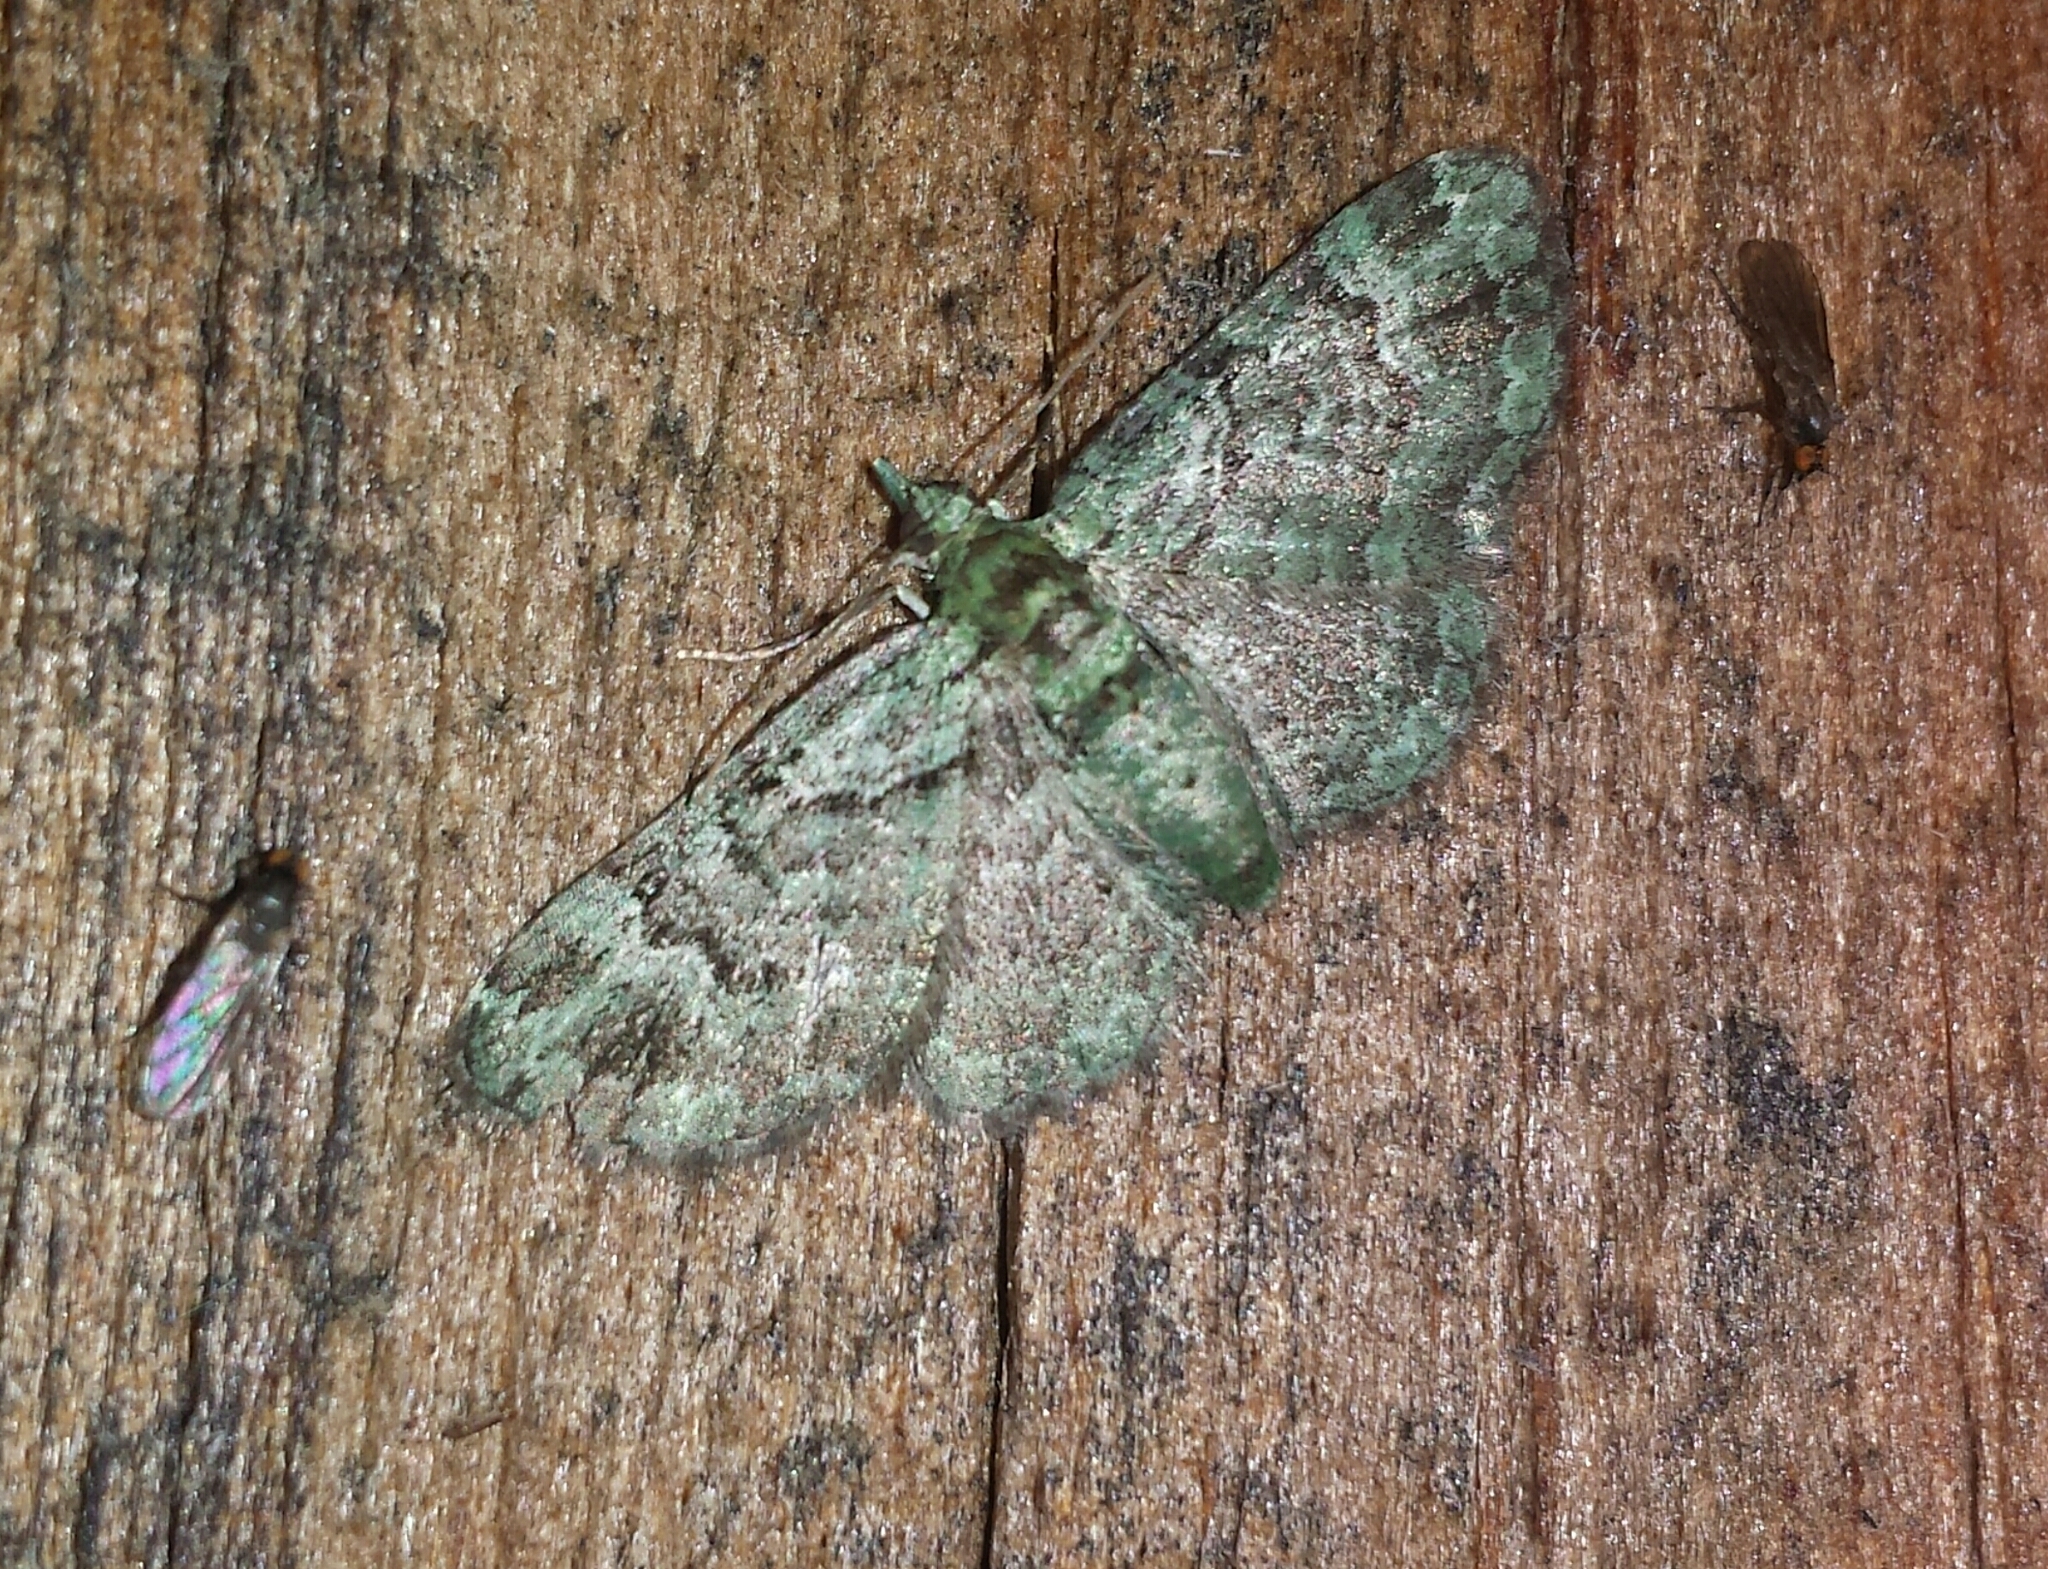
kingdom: Animalia
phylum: Arthropoda
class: Insecta
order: Lepidoptera
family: Geometridae
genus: Pasiphila
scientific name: Pasiphila rectangulata
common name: Green pug
